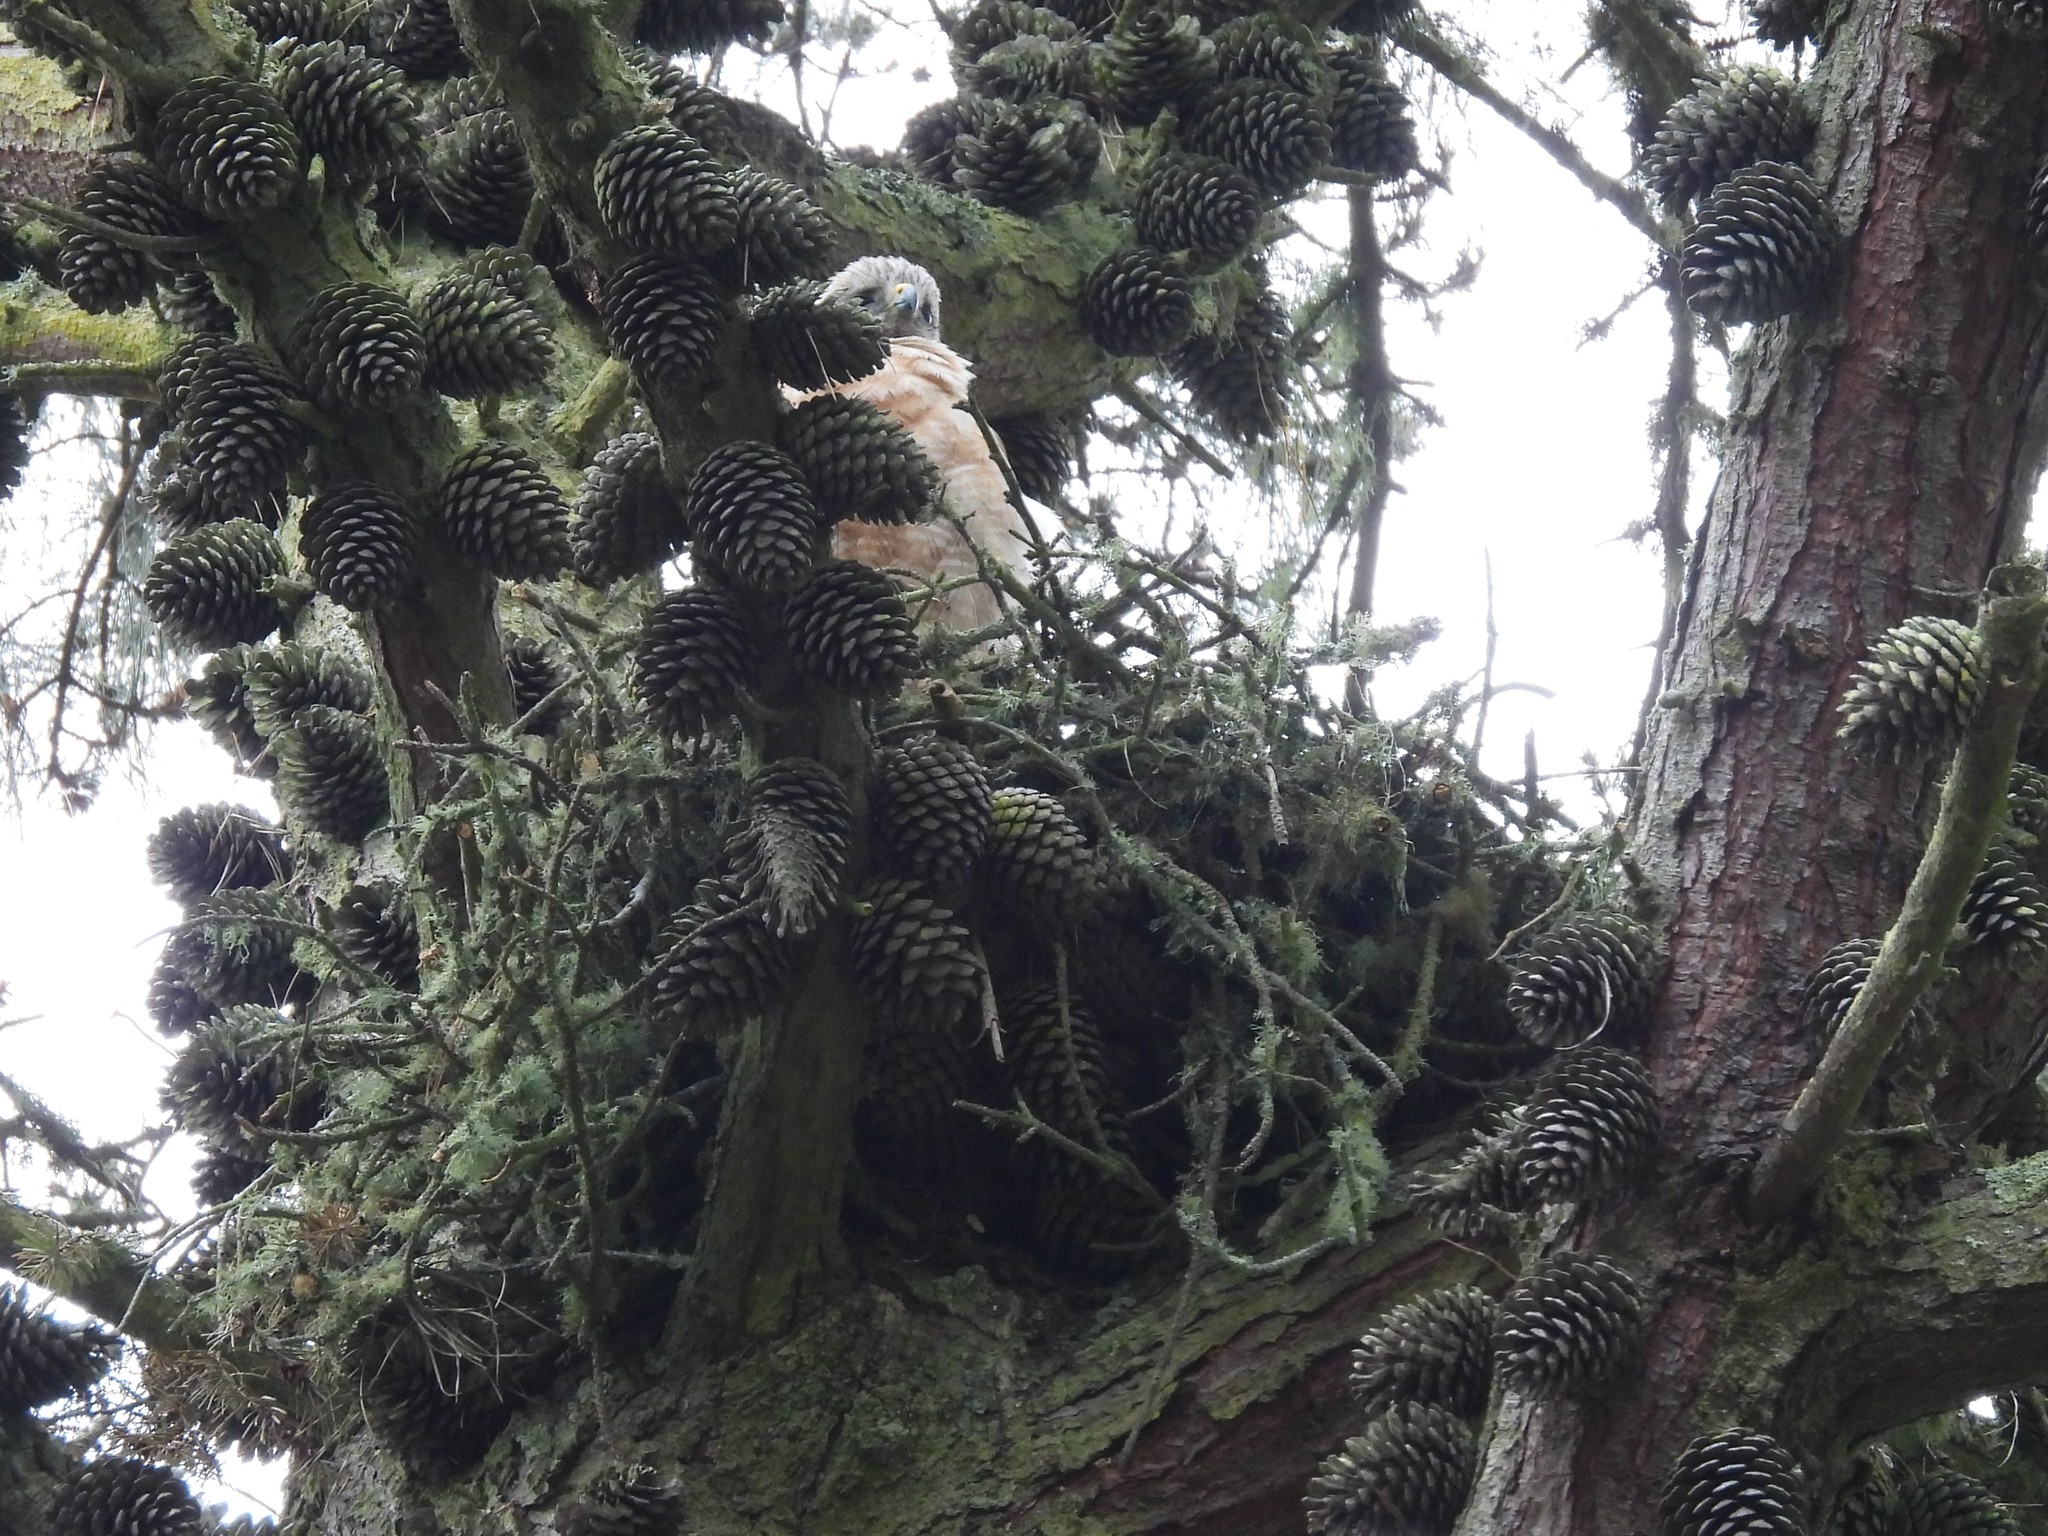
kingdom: Animalia
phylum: Chordata
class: Aves
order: Accipitriformes
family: Accipitridae
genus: Buteo
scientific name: Buteo lineatus
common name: Red-shouldered hawk
